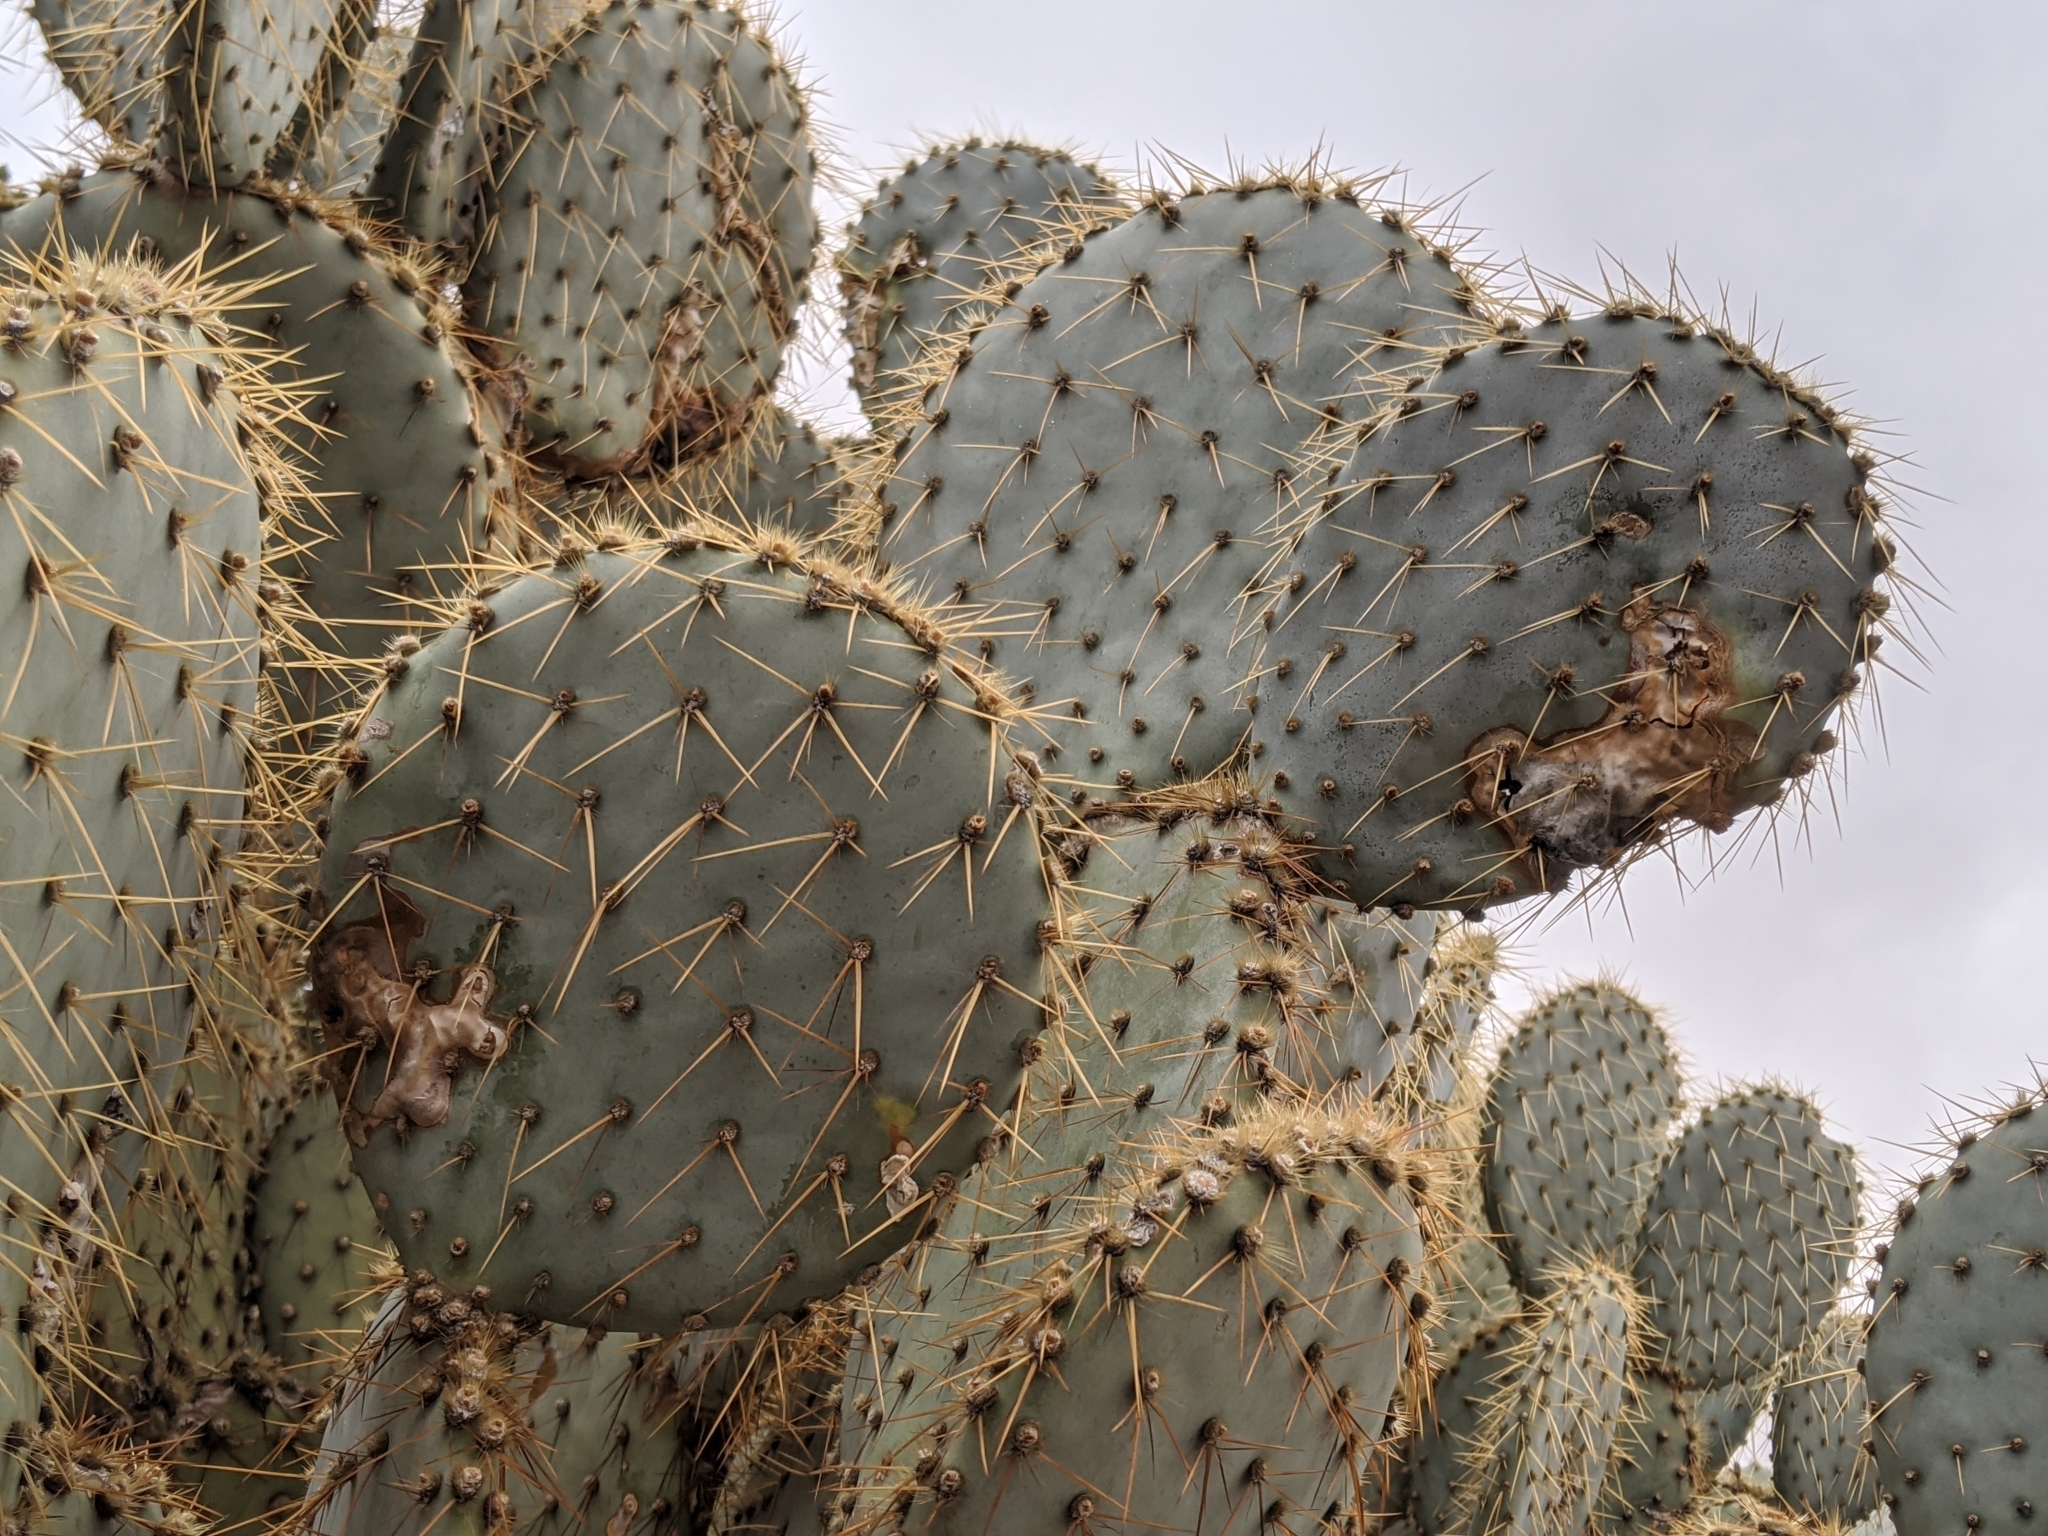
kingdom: Plantae
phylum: Tracheophyta
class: Magnoliopsida
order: Caryophyllales
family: Cactaceae
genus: Opuntia
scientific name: Opuntia chlorotica
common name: Dollar-joint prickly-pear
